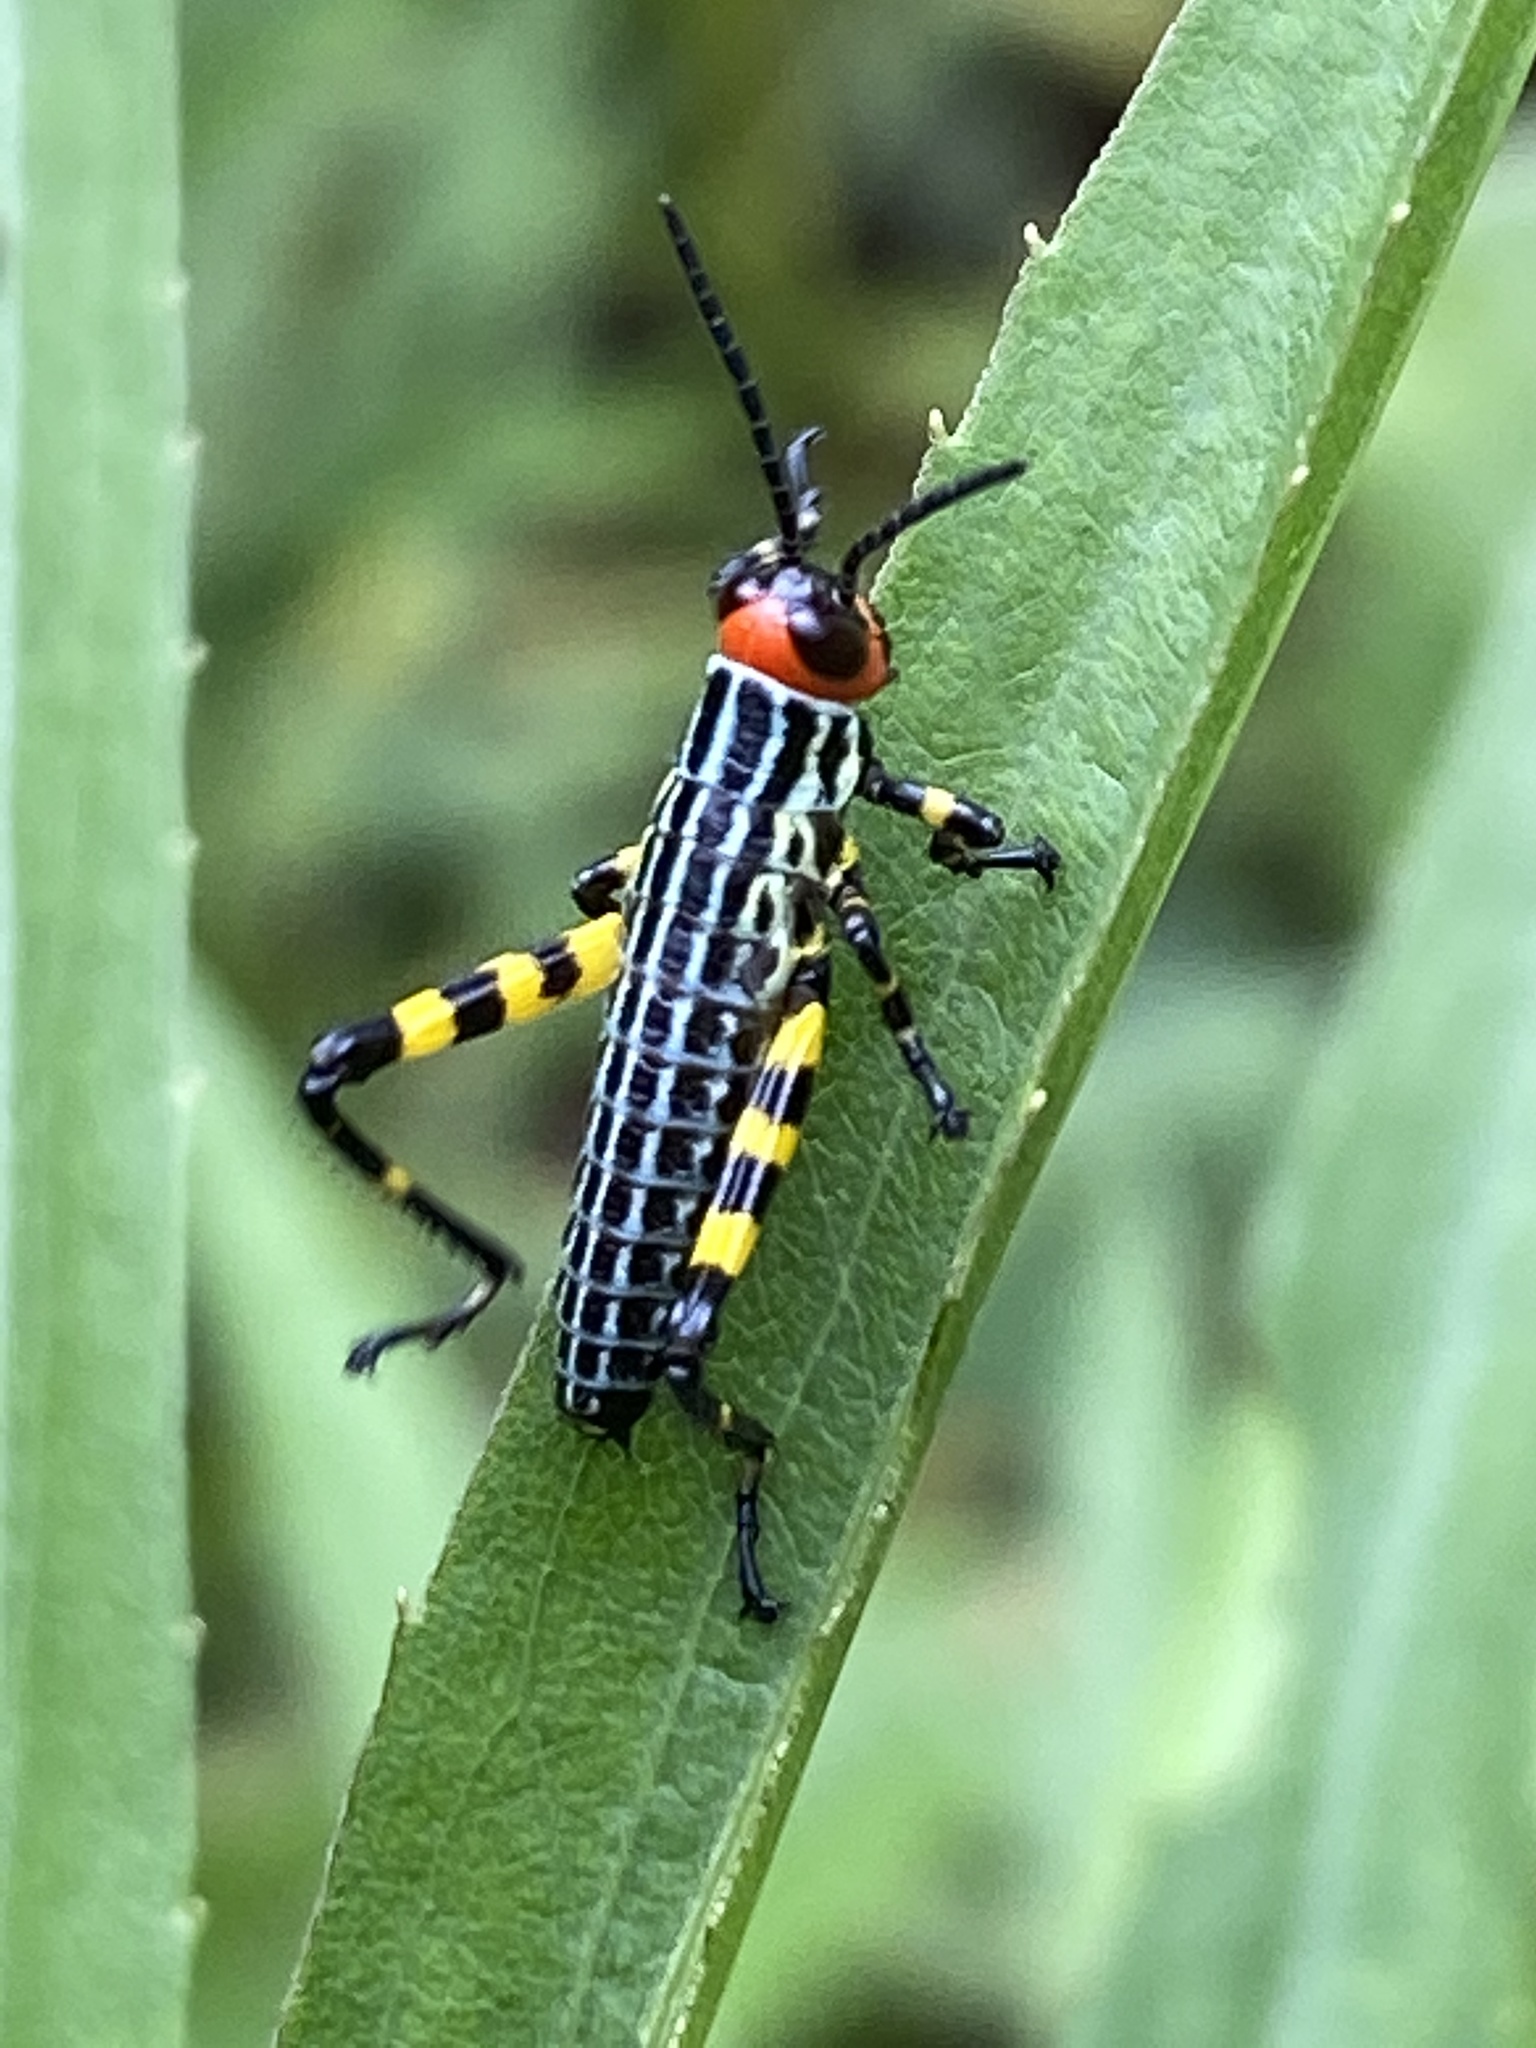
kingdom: Animalia
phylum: Arthropoda
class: Insecta
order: Orthoptera
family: Romaleidae
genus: Zoniopoda
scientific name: Zoniopoda tarsata
